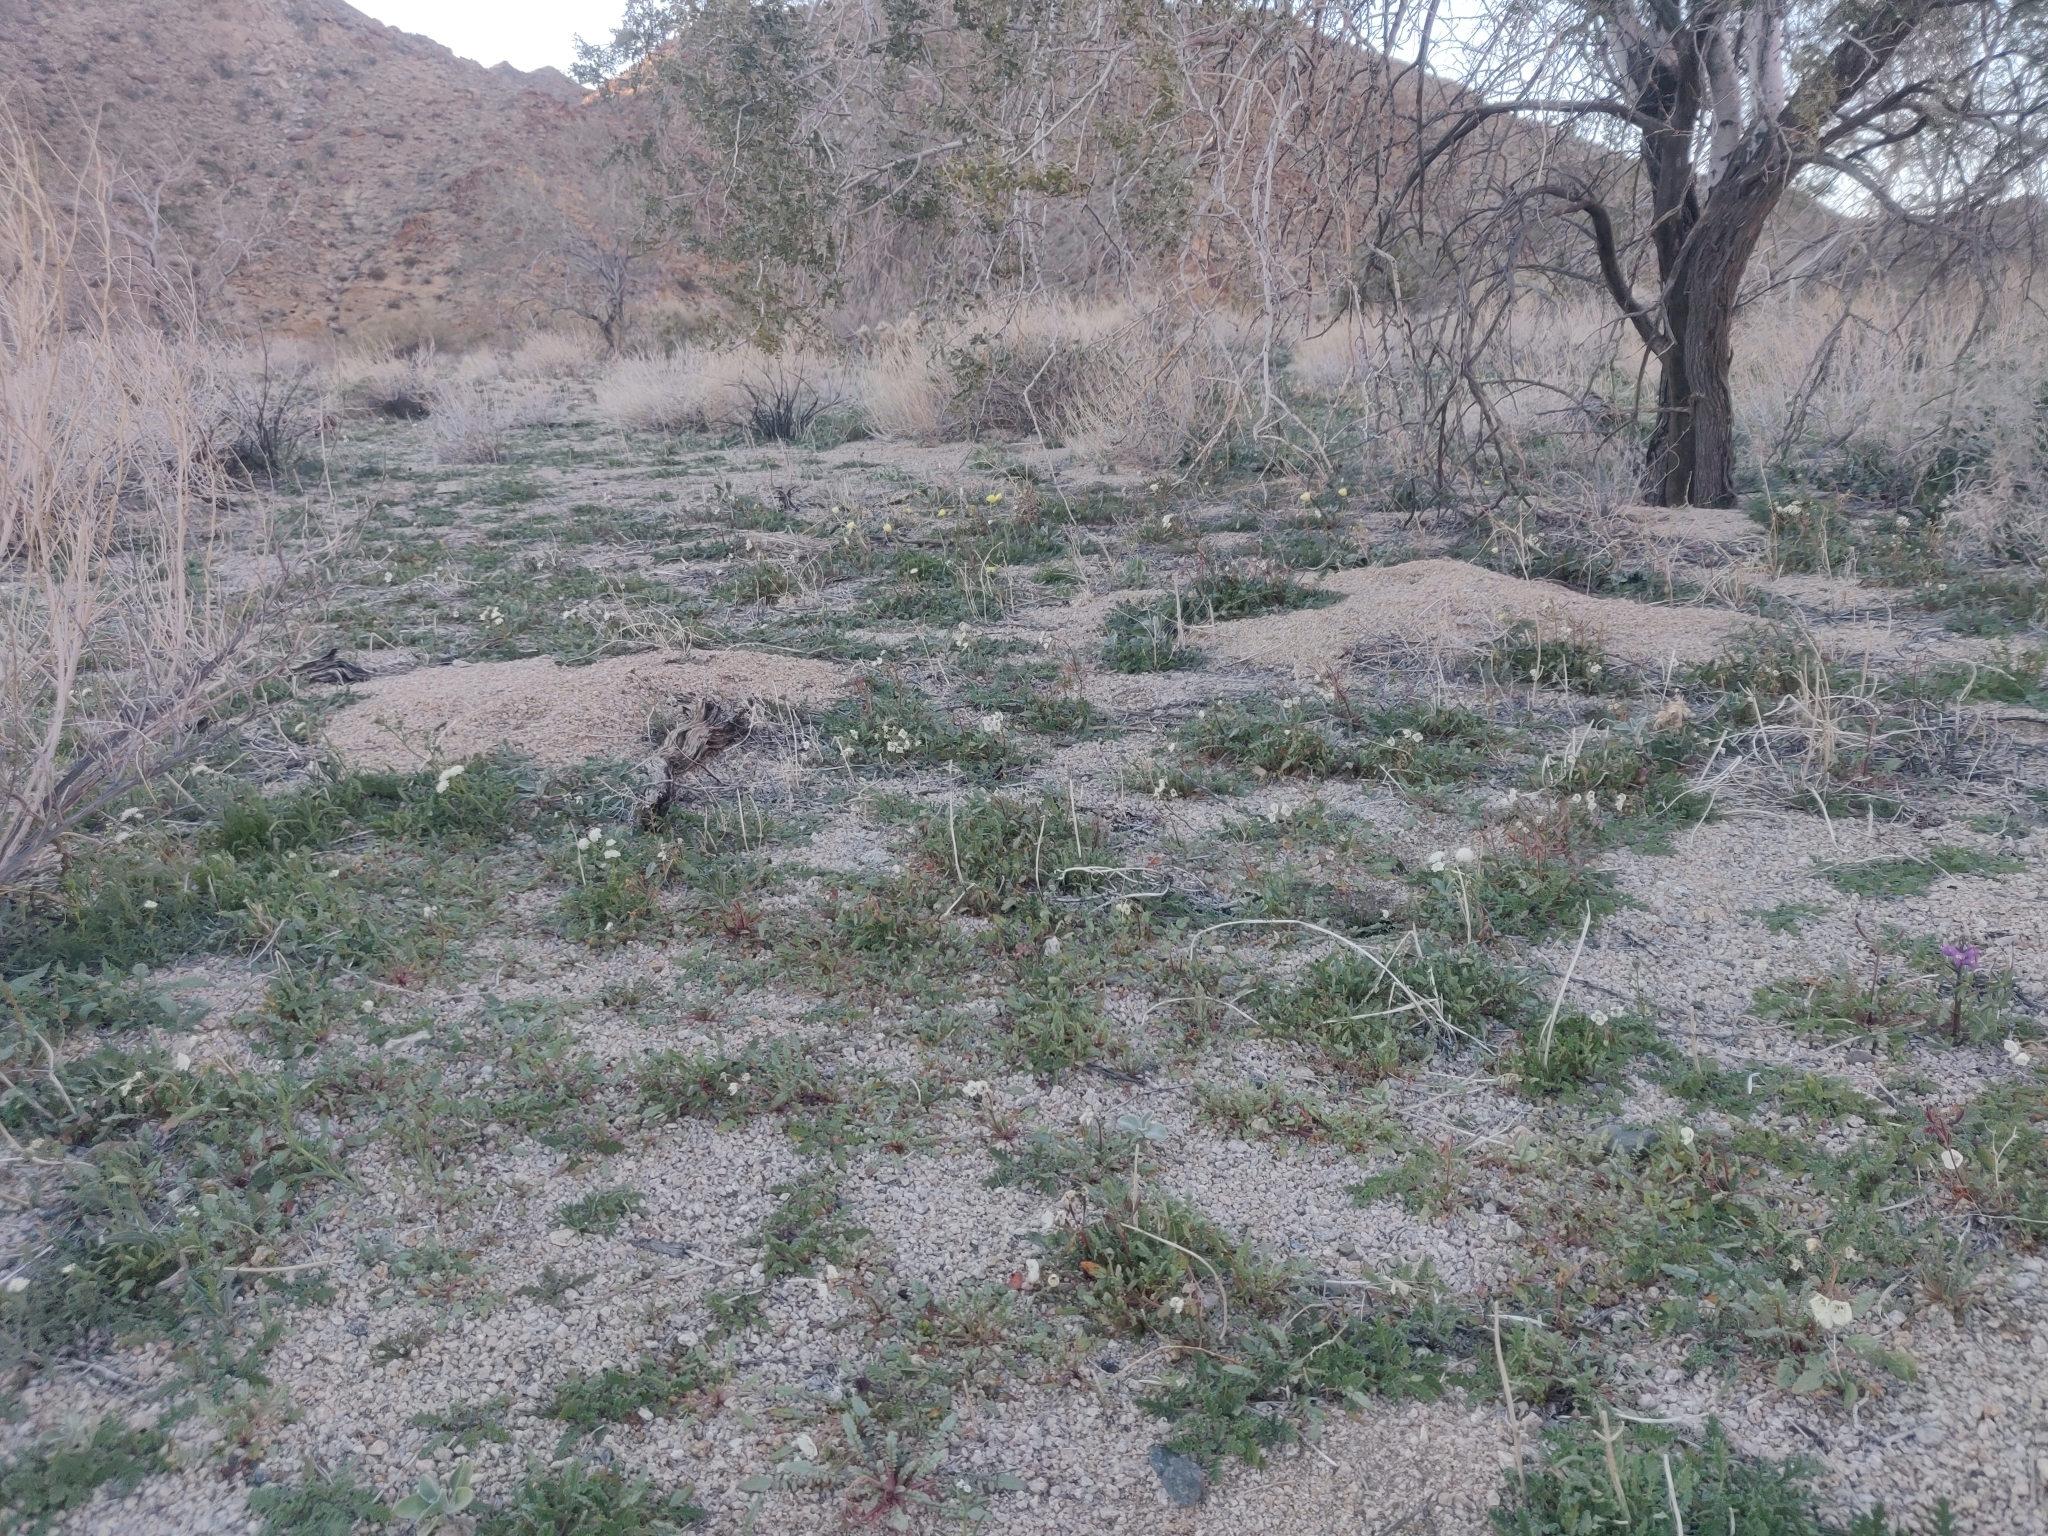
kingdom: Plantae
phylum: Tracheophyta
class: Magnoliopsida
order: Myrtales
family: Onagraceae
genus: Chylismia
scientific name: Chylismia claviformis
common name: Browneyes
